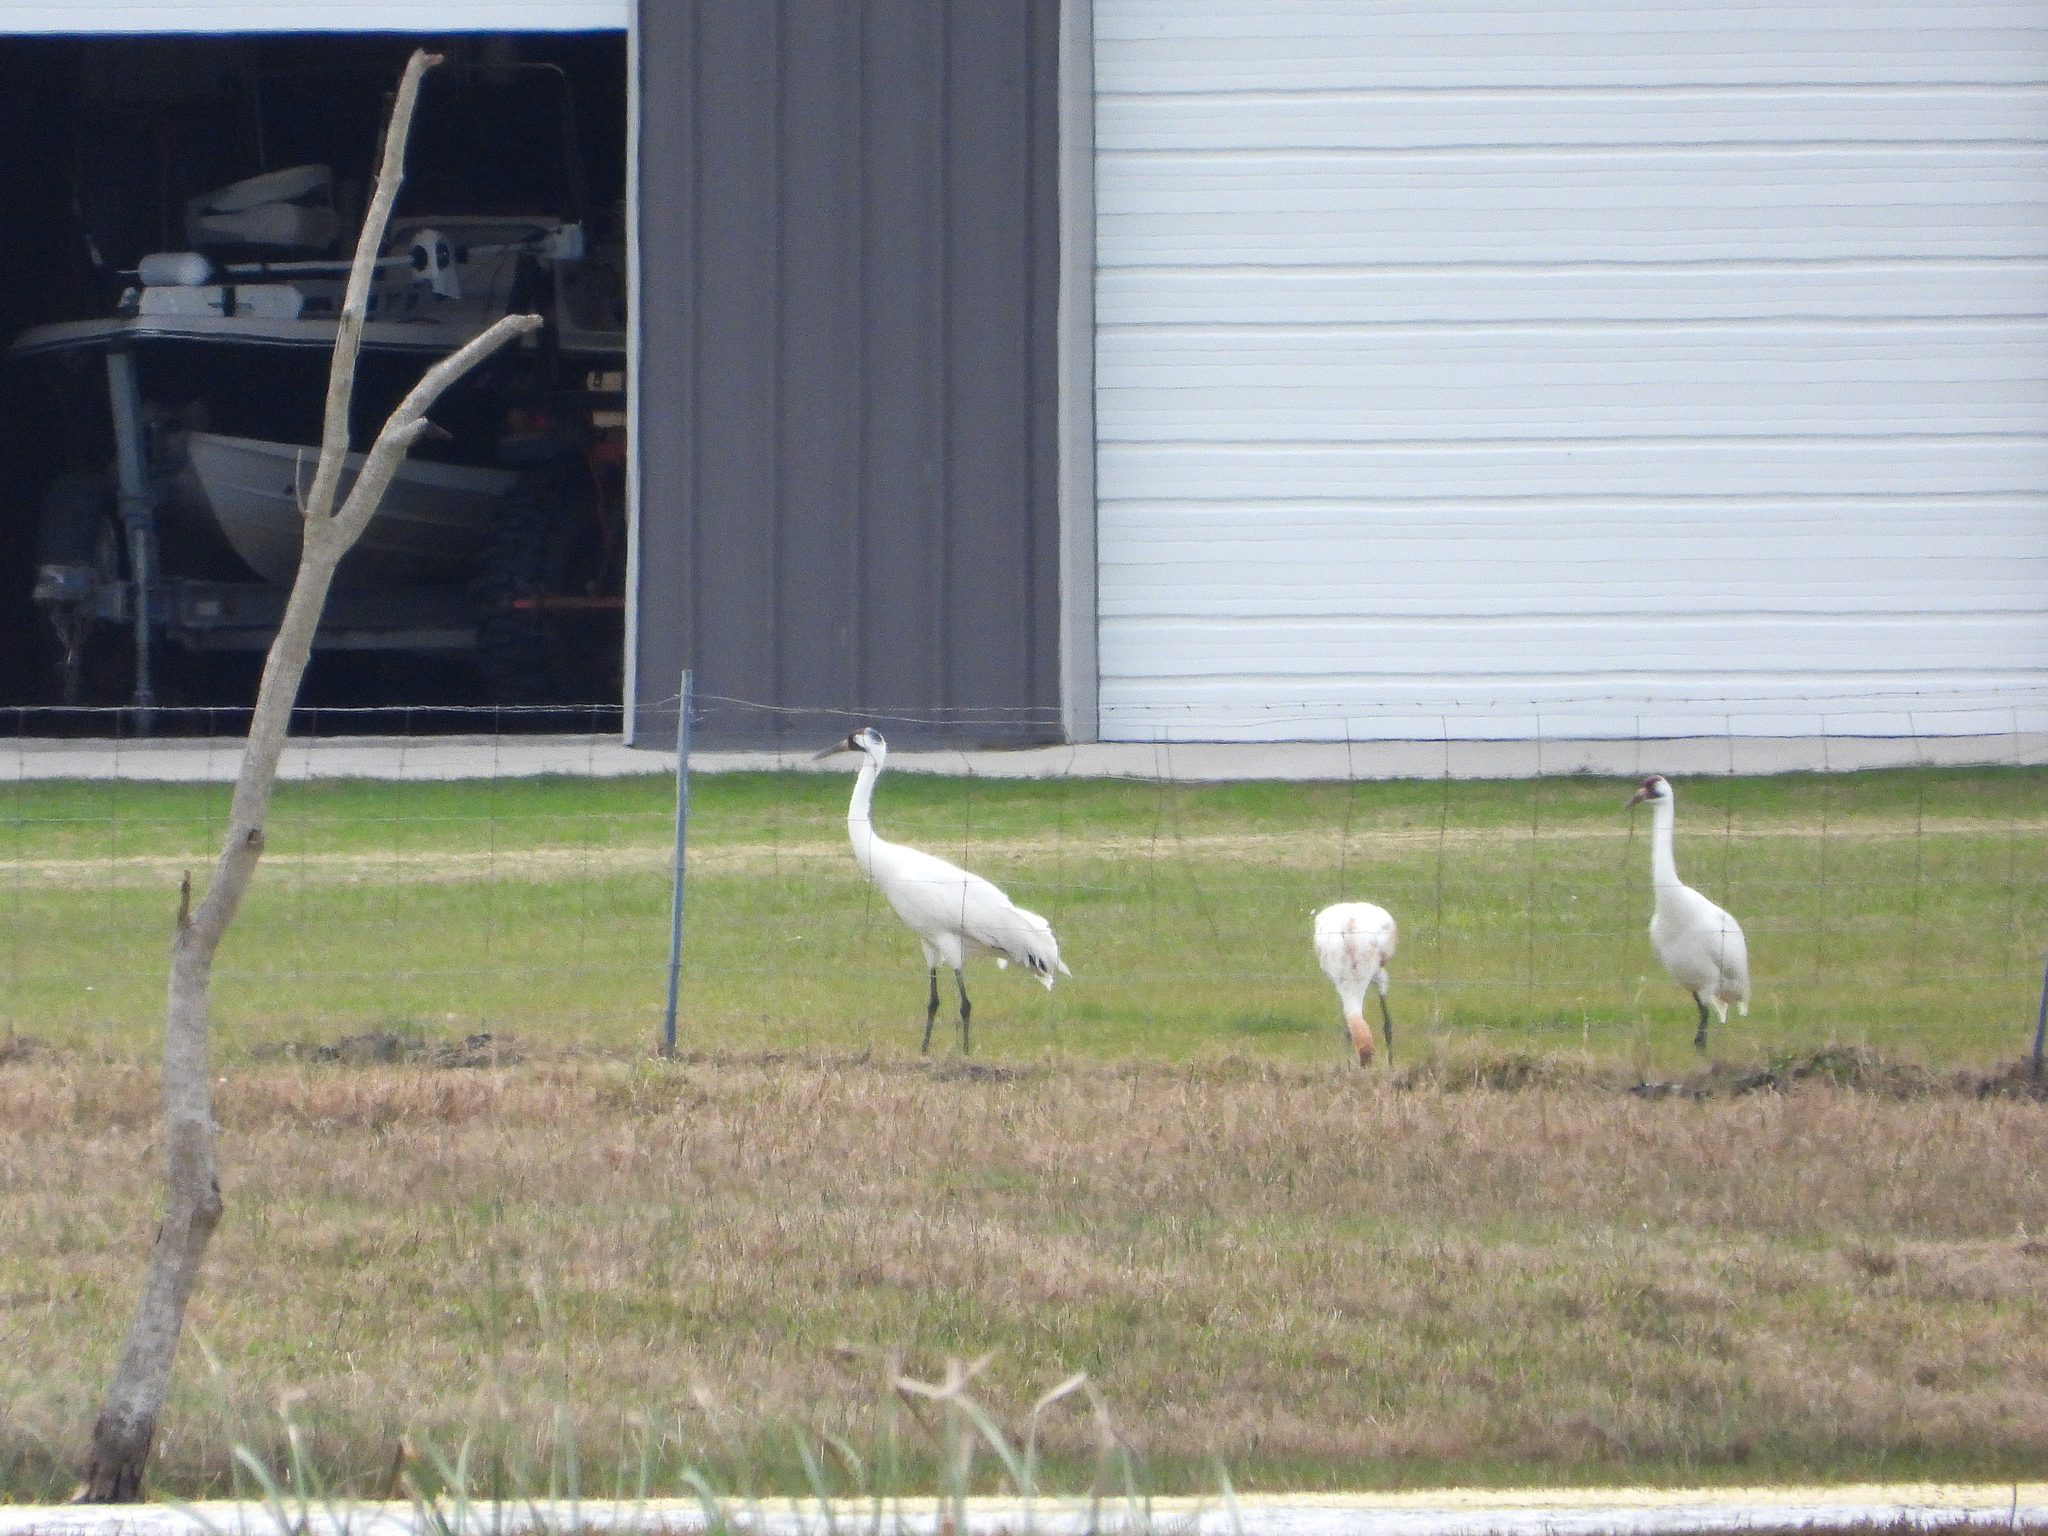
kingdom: Animalia
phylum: Chordata
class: Aves
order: Gruiformes
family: Gruidae
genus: Grus
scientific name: Grus americana
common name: Whooping crane
